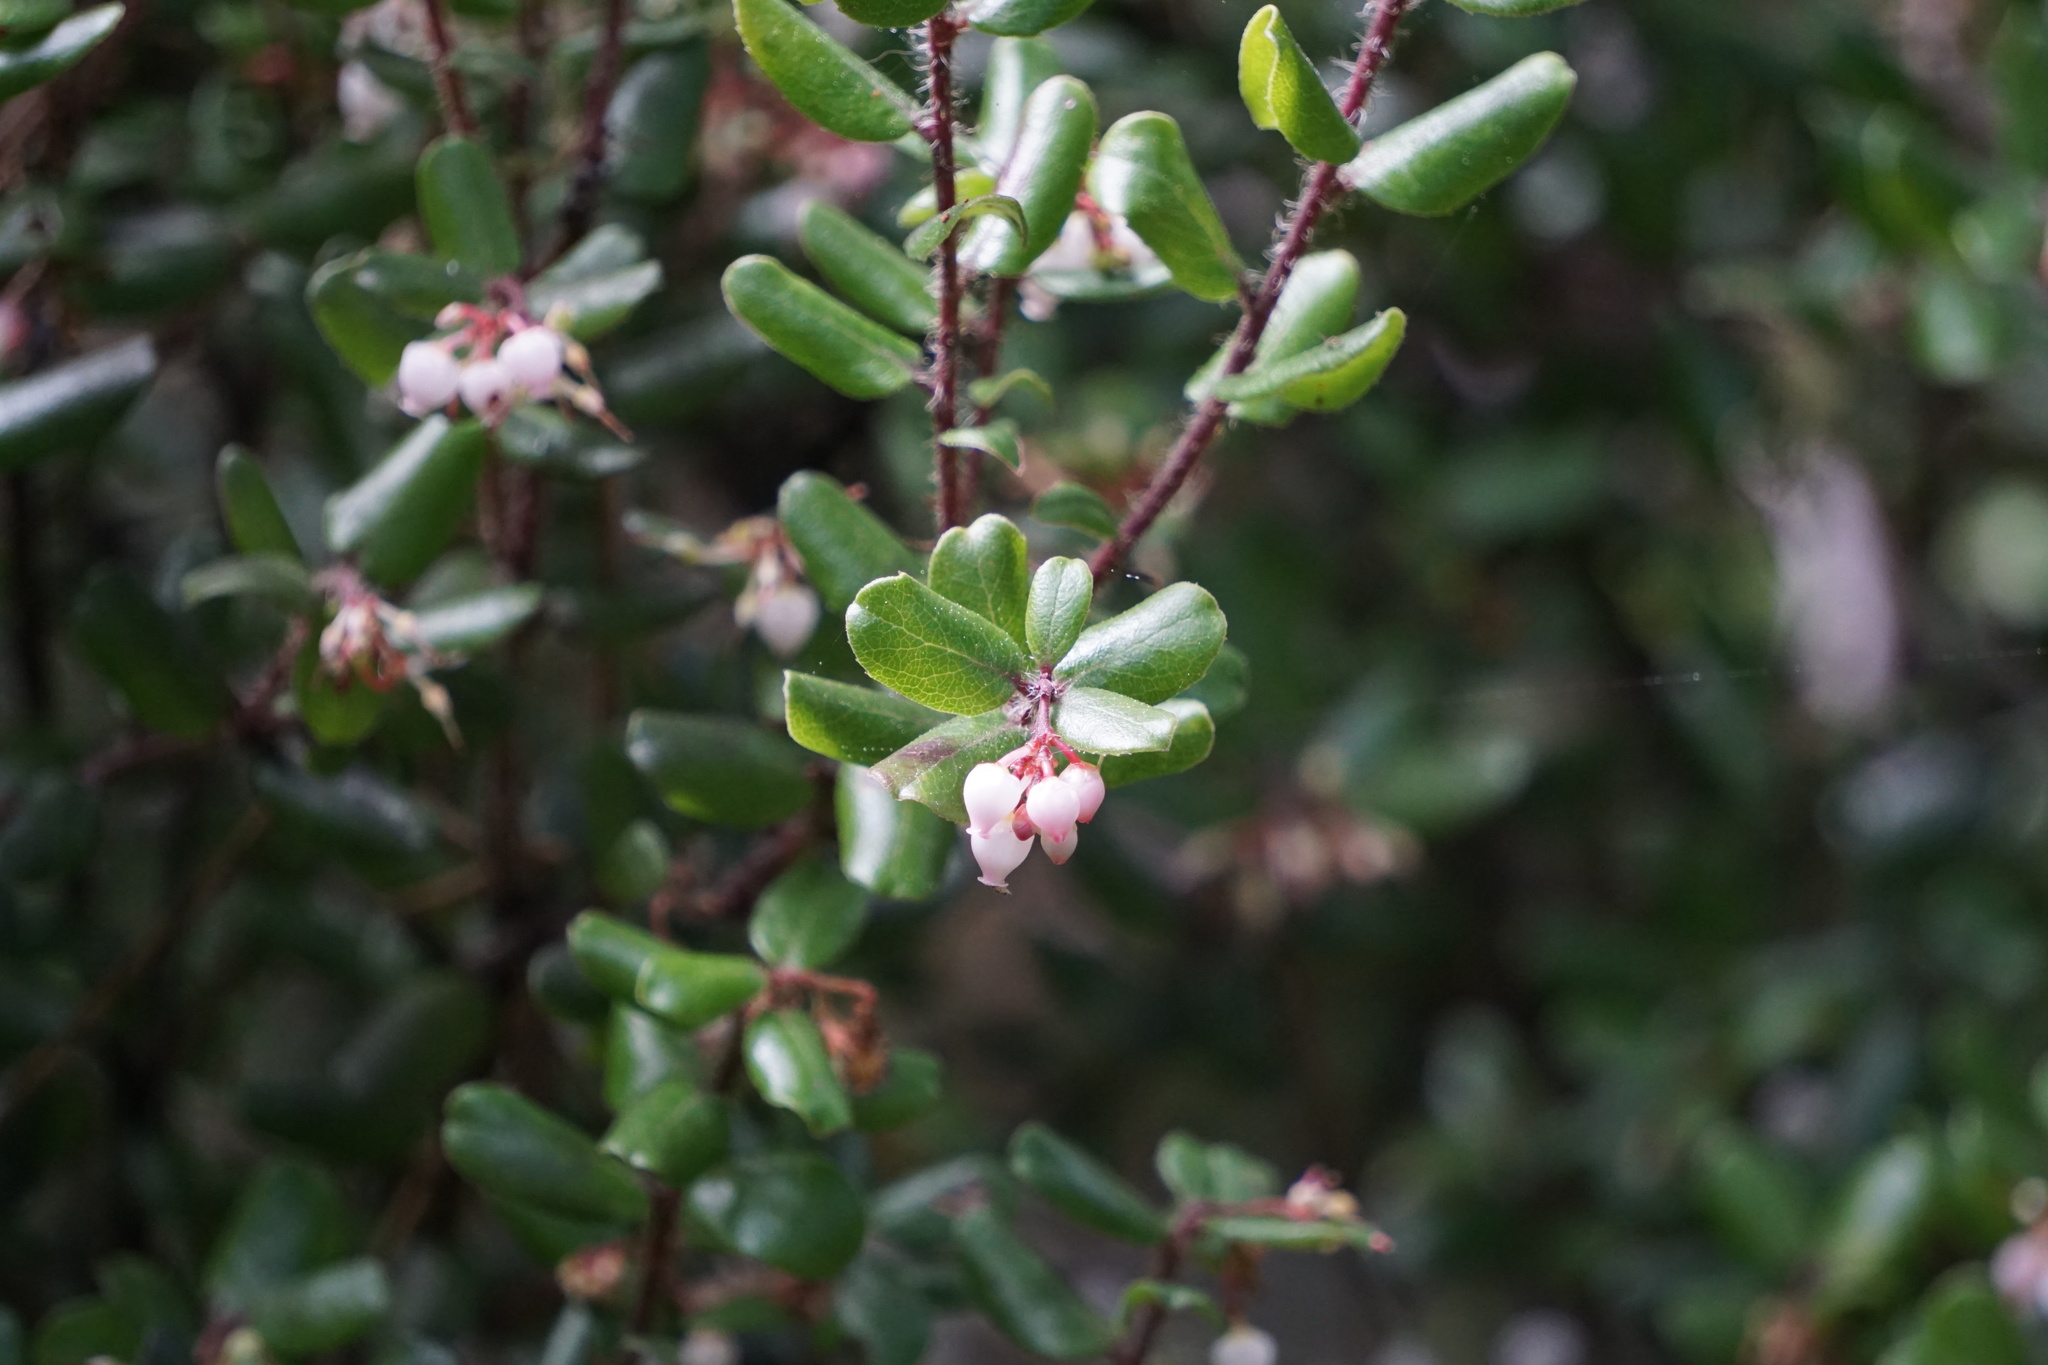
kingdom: Plantae
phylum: Tracheophyta
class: Magnoliopsida
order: Ericales
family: Ericaceae
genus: Arctostaphylos
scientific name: Arctostaphylos nummularia
